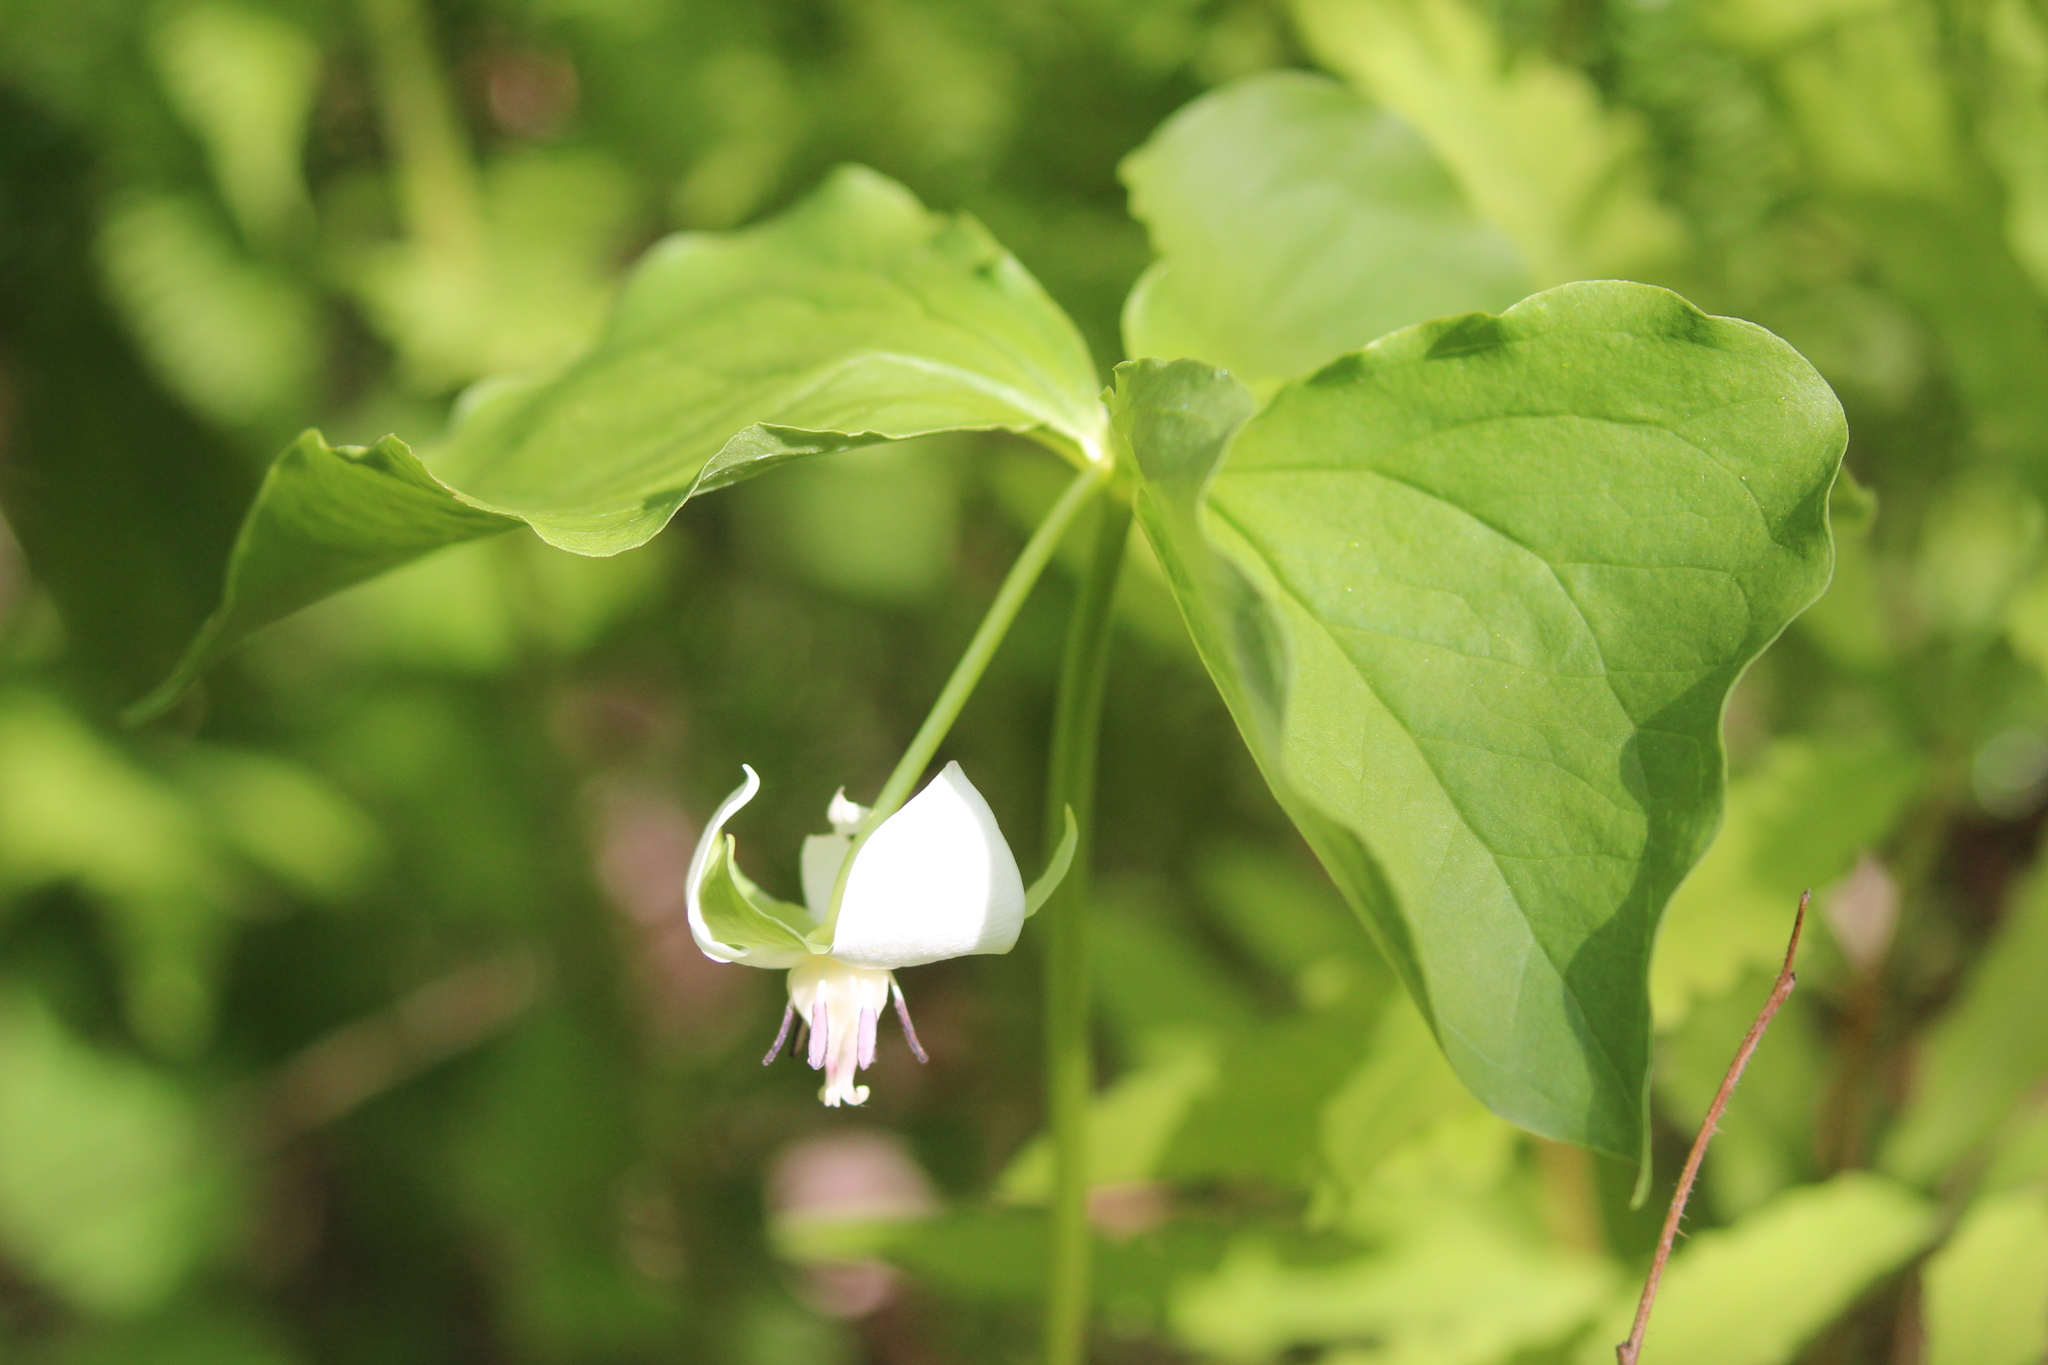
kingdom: Plantae
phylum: Tracheophyta
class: Liliopsida
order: Liliales
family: Melanthiaceae
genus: Trillium
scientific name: Trillium cernuum
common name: Nodding trillium
